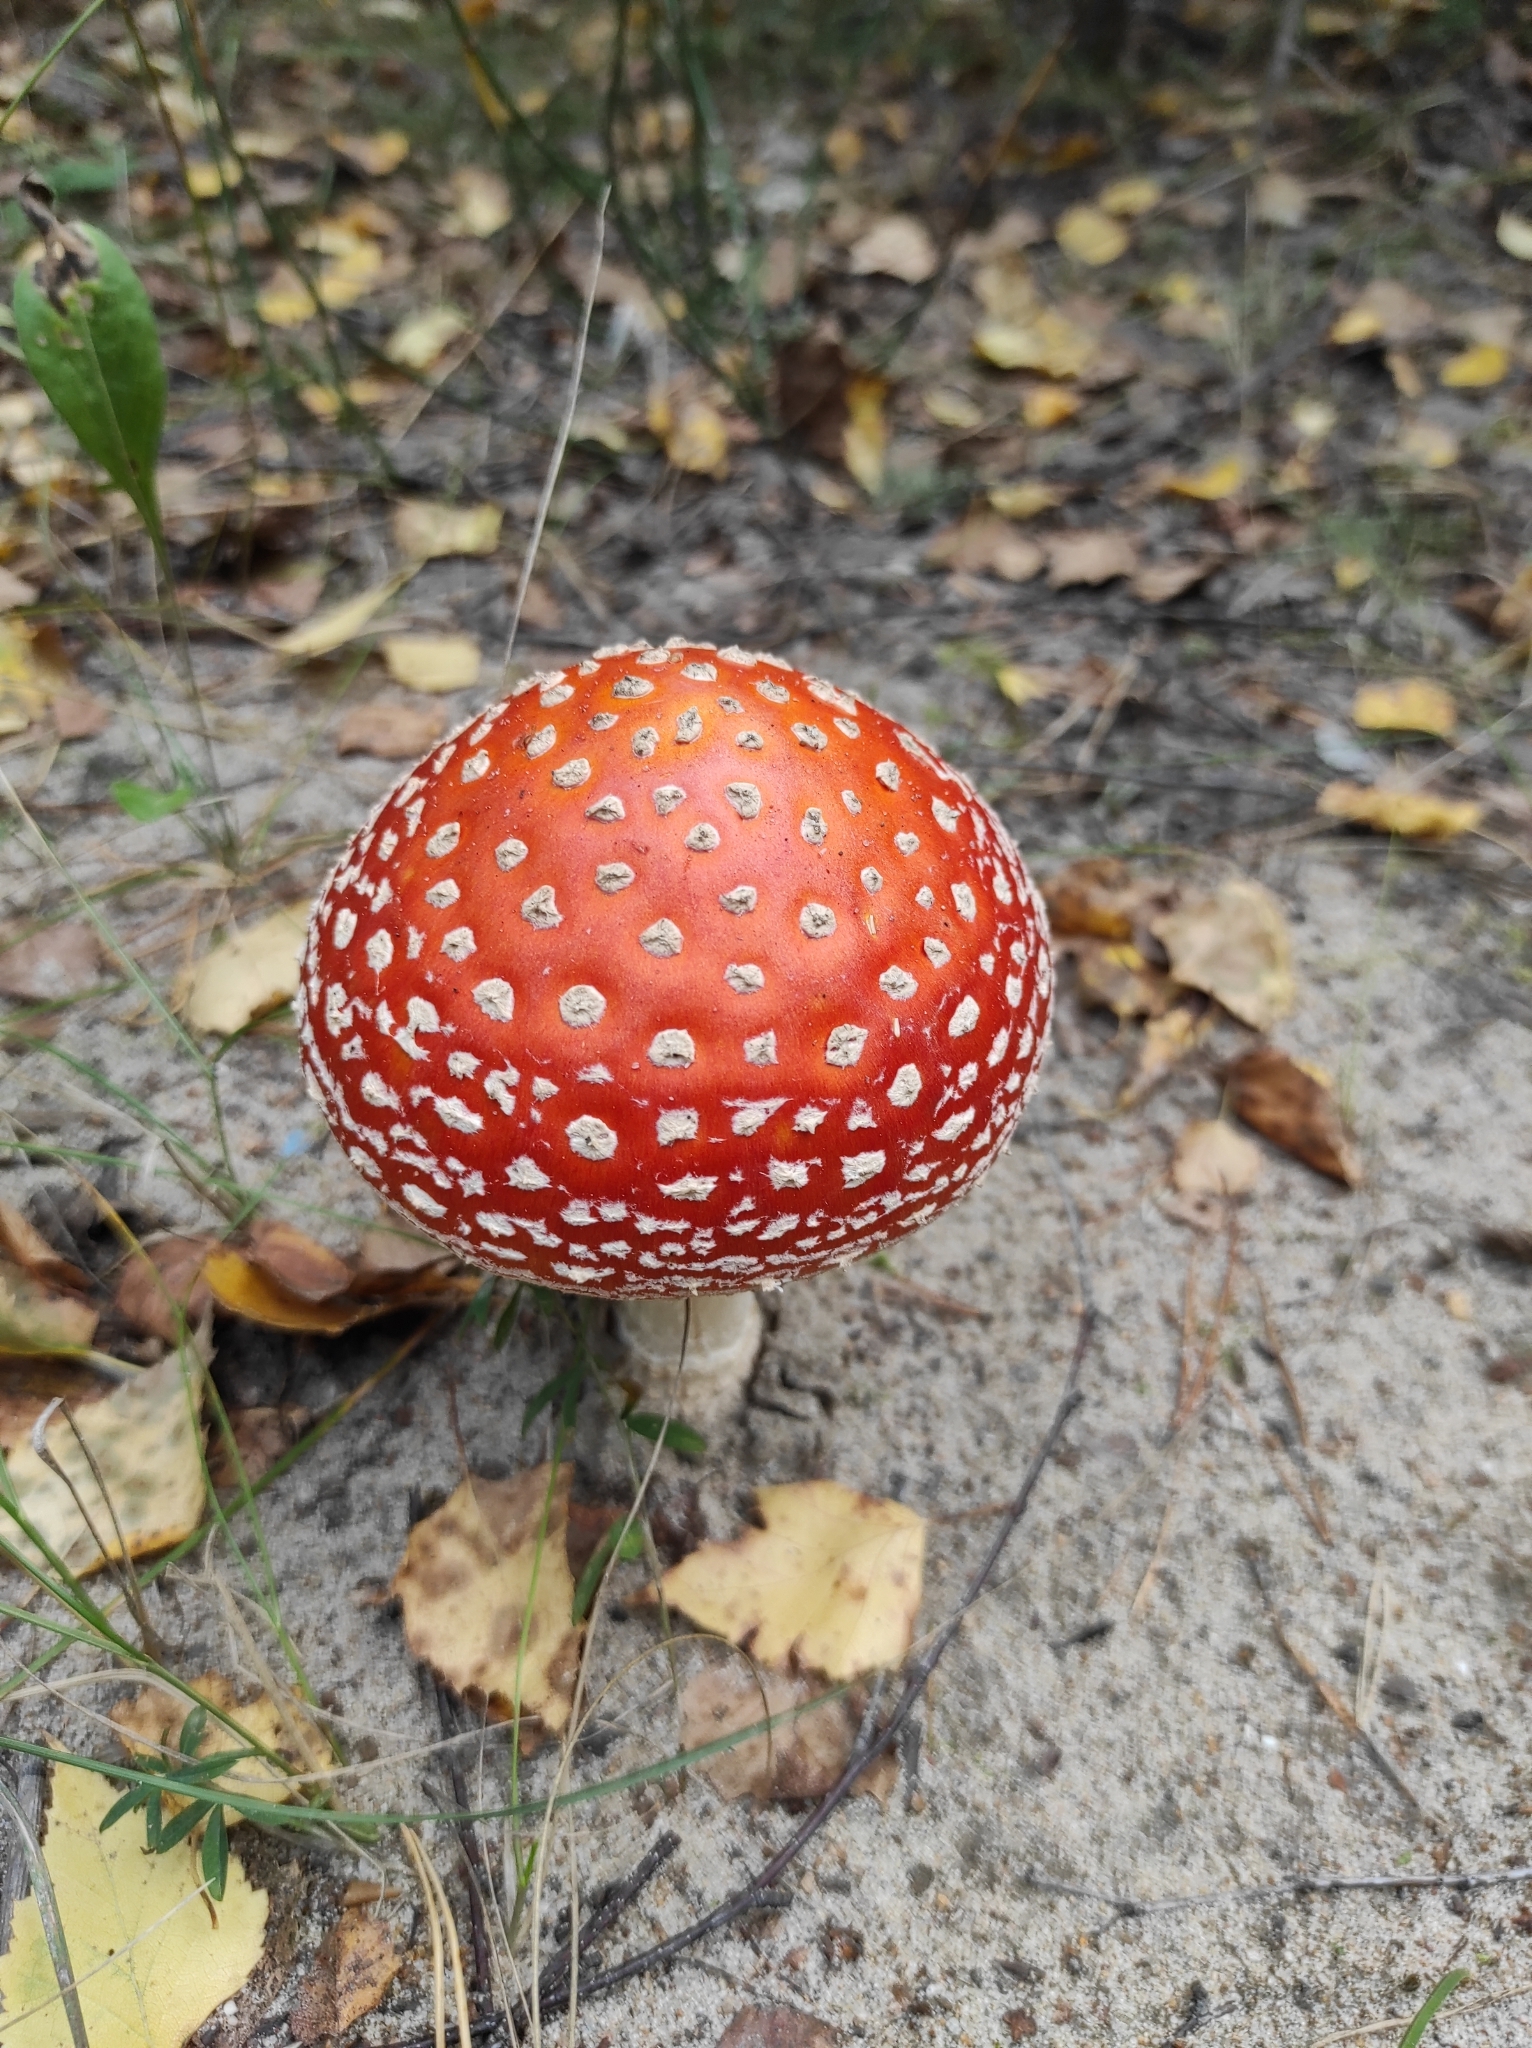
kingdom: Fungi
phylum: Basidiomycota
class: Agaricomycetes
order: Agaricales
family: Amanitaceae
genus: Amanita
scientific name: Amanita muscaria
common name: Fly agaric
